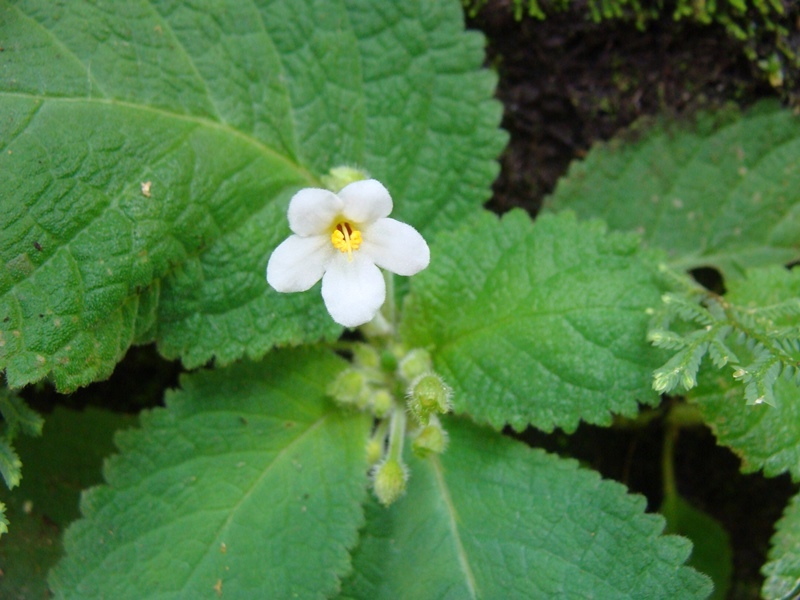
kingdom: Plantae
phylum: Tracheophyta
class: Magnoliopsida
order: Lamiales
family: Gesneriaceae
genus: Amalophyllon
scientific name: Amalophyllon rupestre
